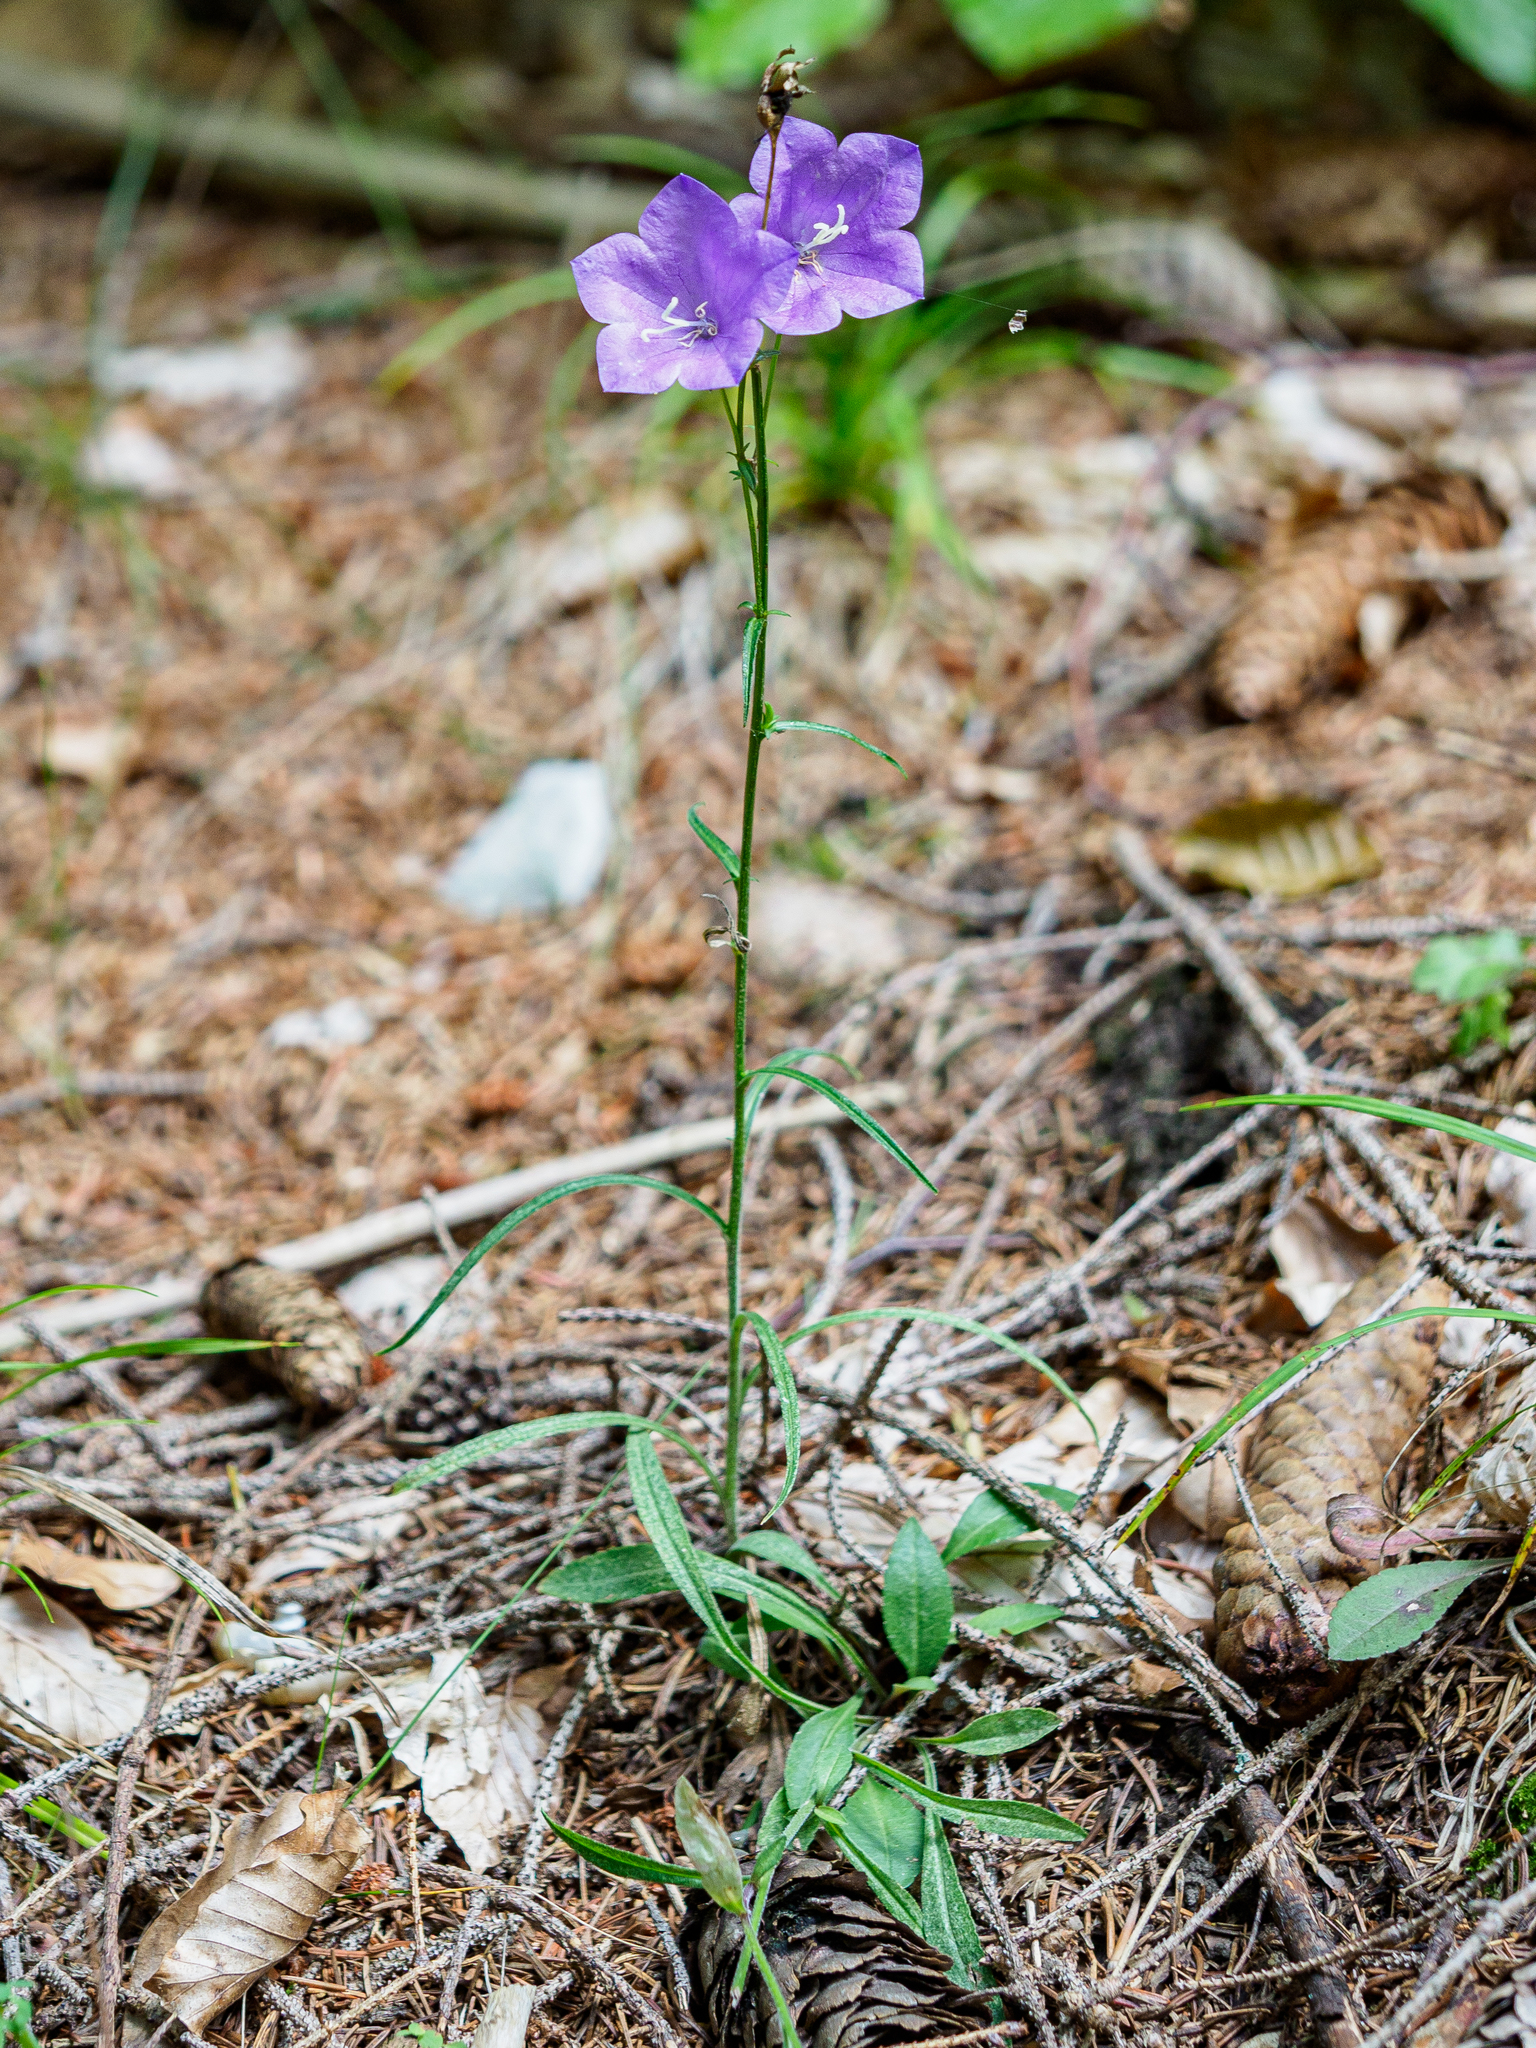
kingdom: Plantae
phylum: Tracheophyta
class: Magnoliopsida
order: Asterales
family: Campanulaceae
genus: Campanula
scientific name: Campanula persicifolia
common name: Peach-leaved bellflower
